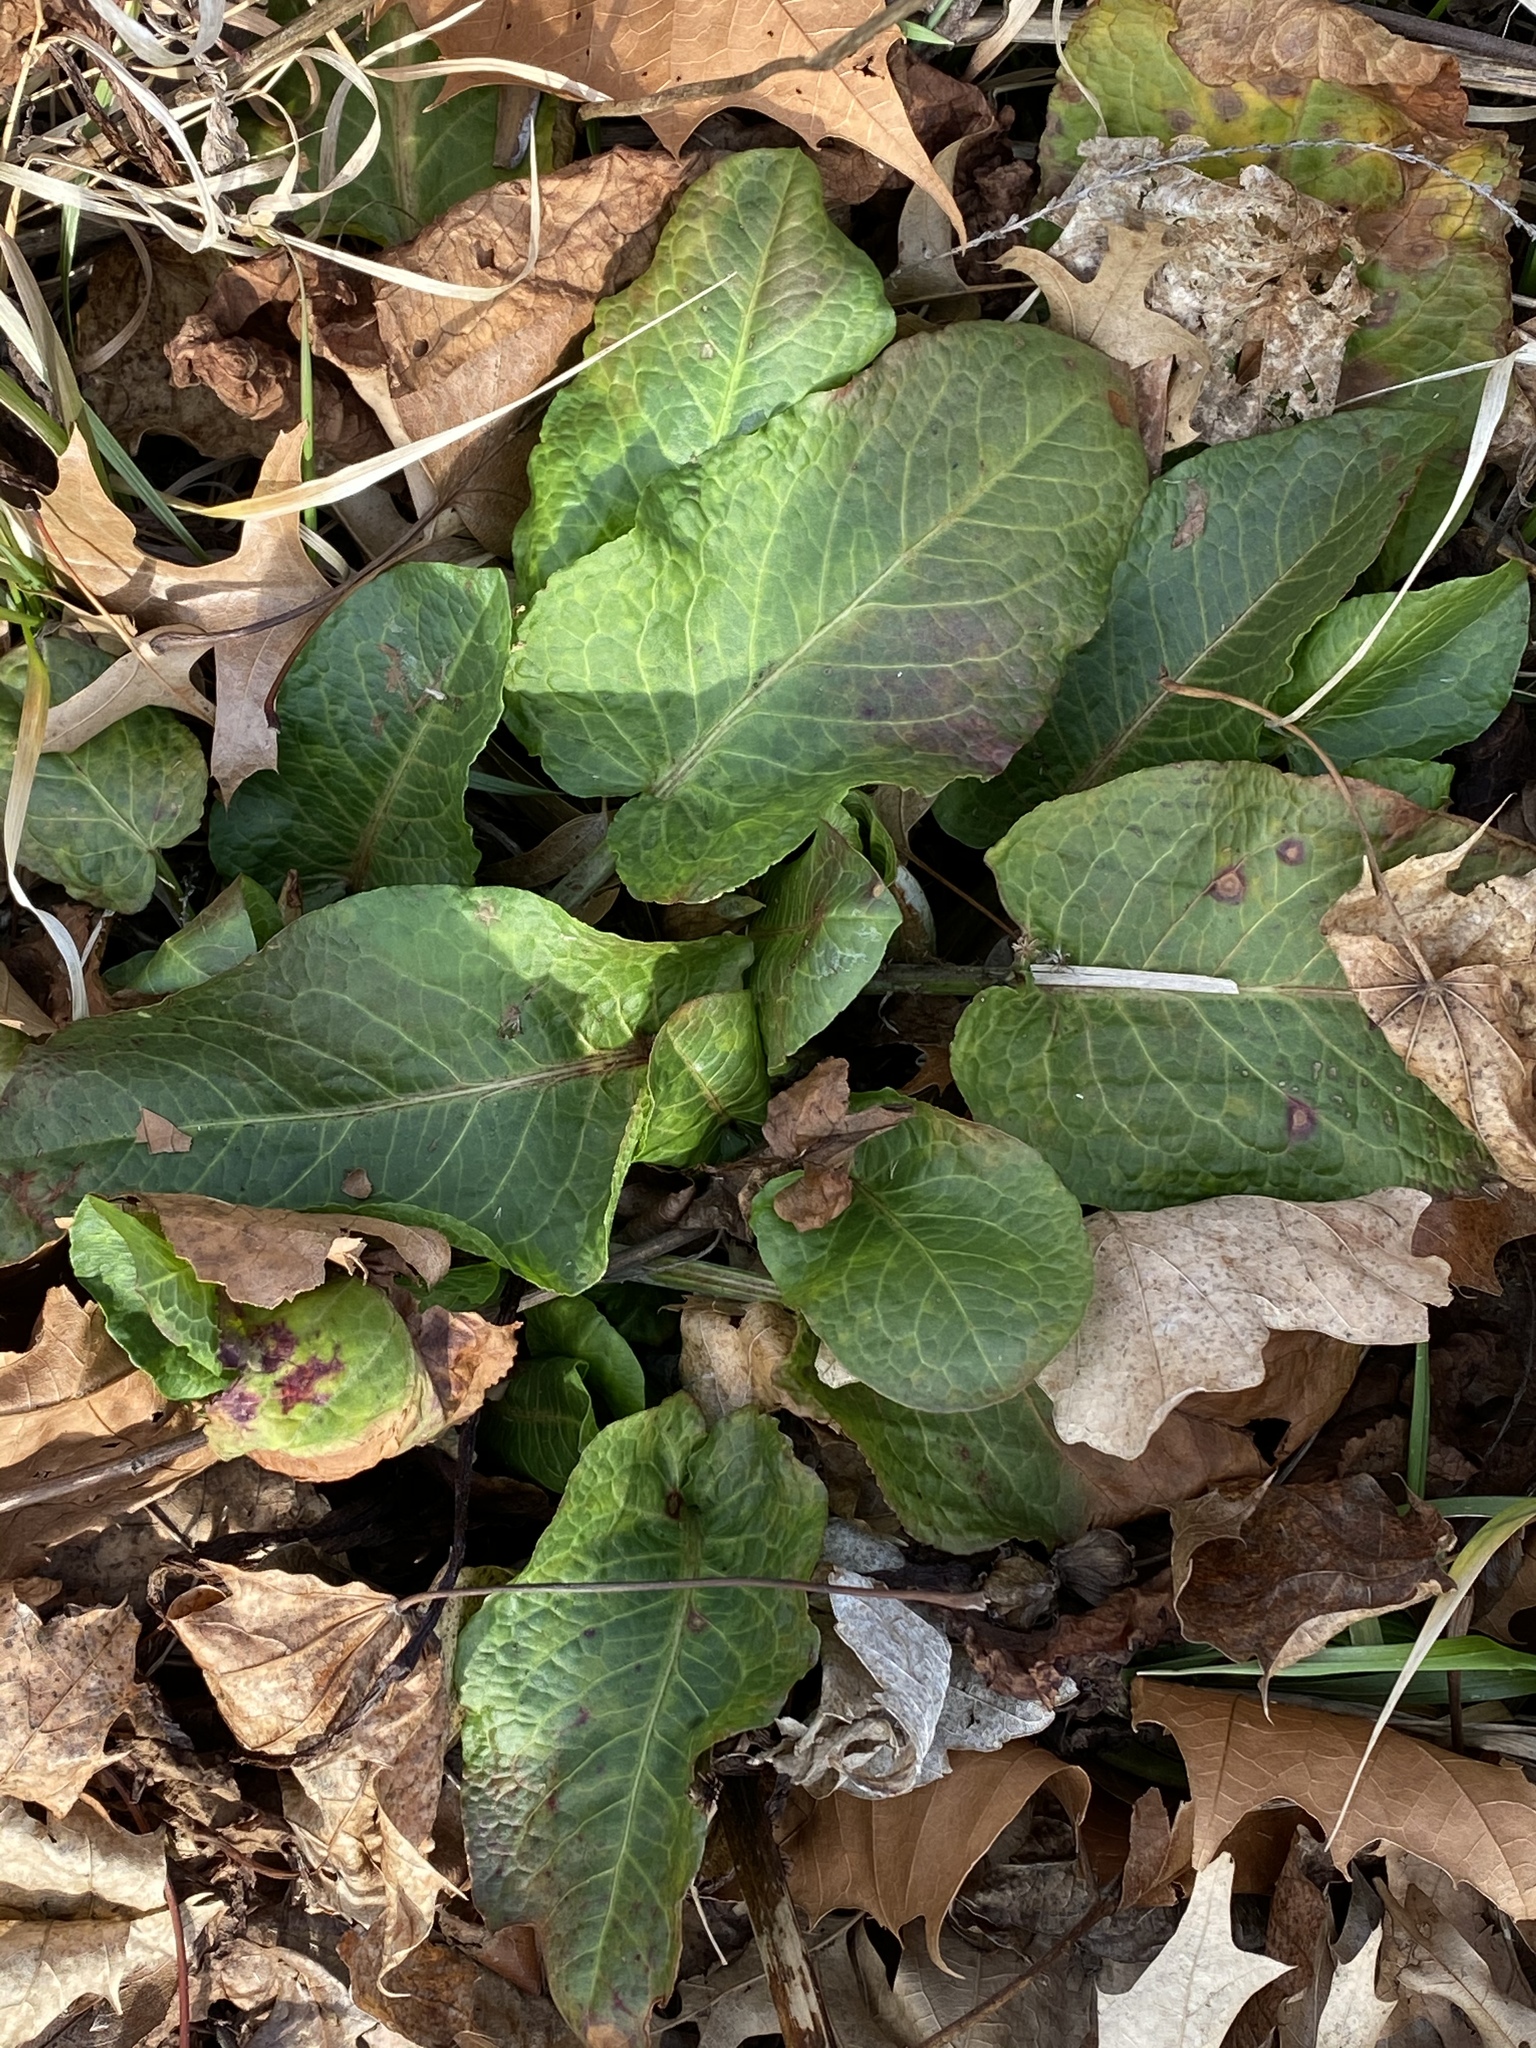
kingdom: Plantae
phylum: Tracheophyta
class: Magnoliopsida
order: Caryophyllales
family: Polygonaceae
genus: Rumex
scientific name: Rumex obtusifolius
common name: Bitter dock
